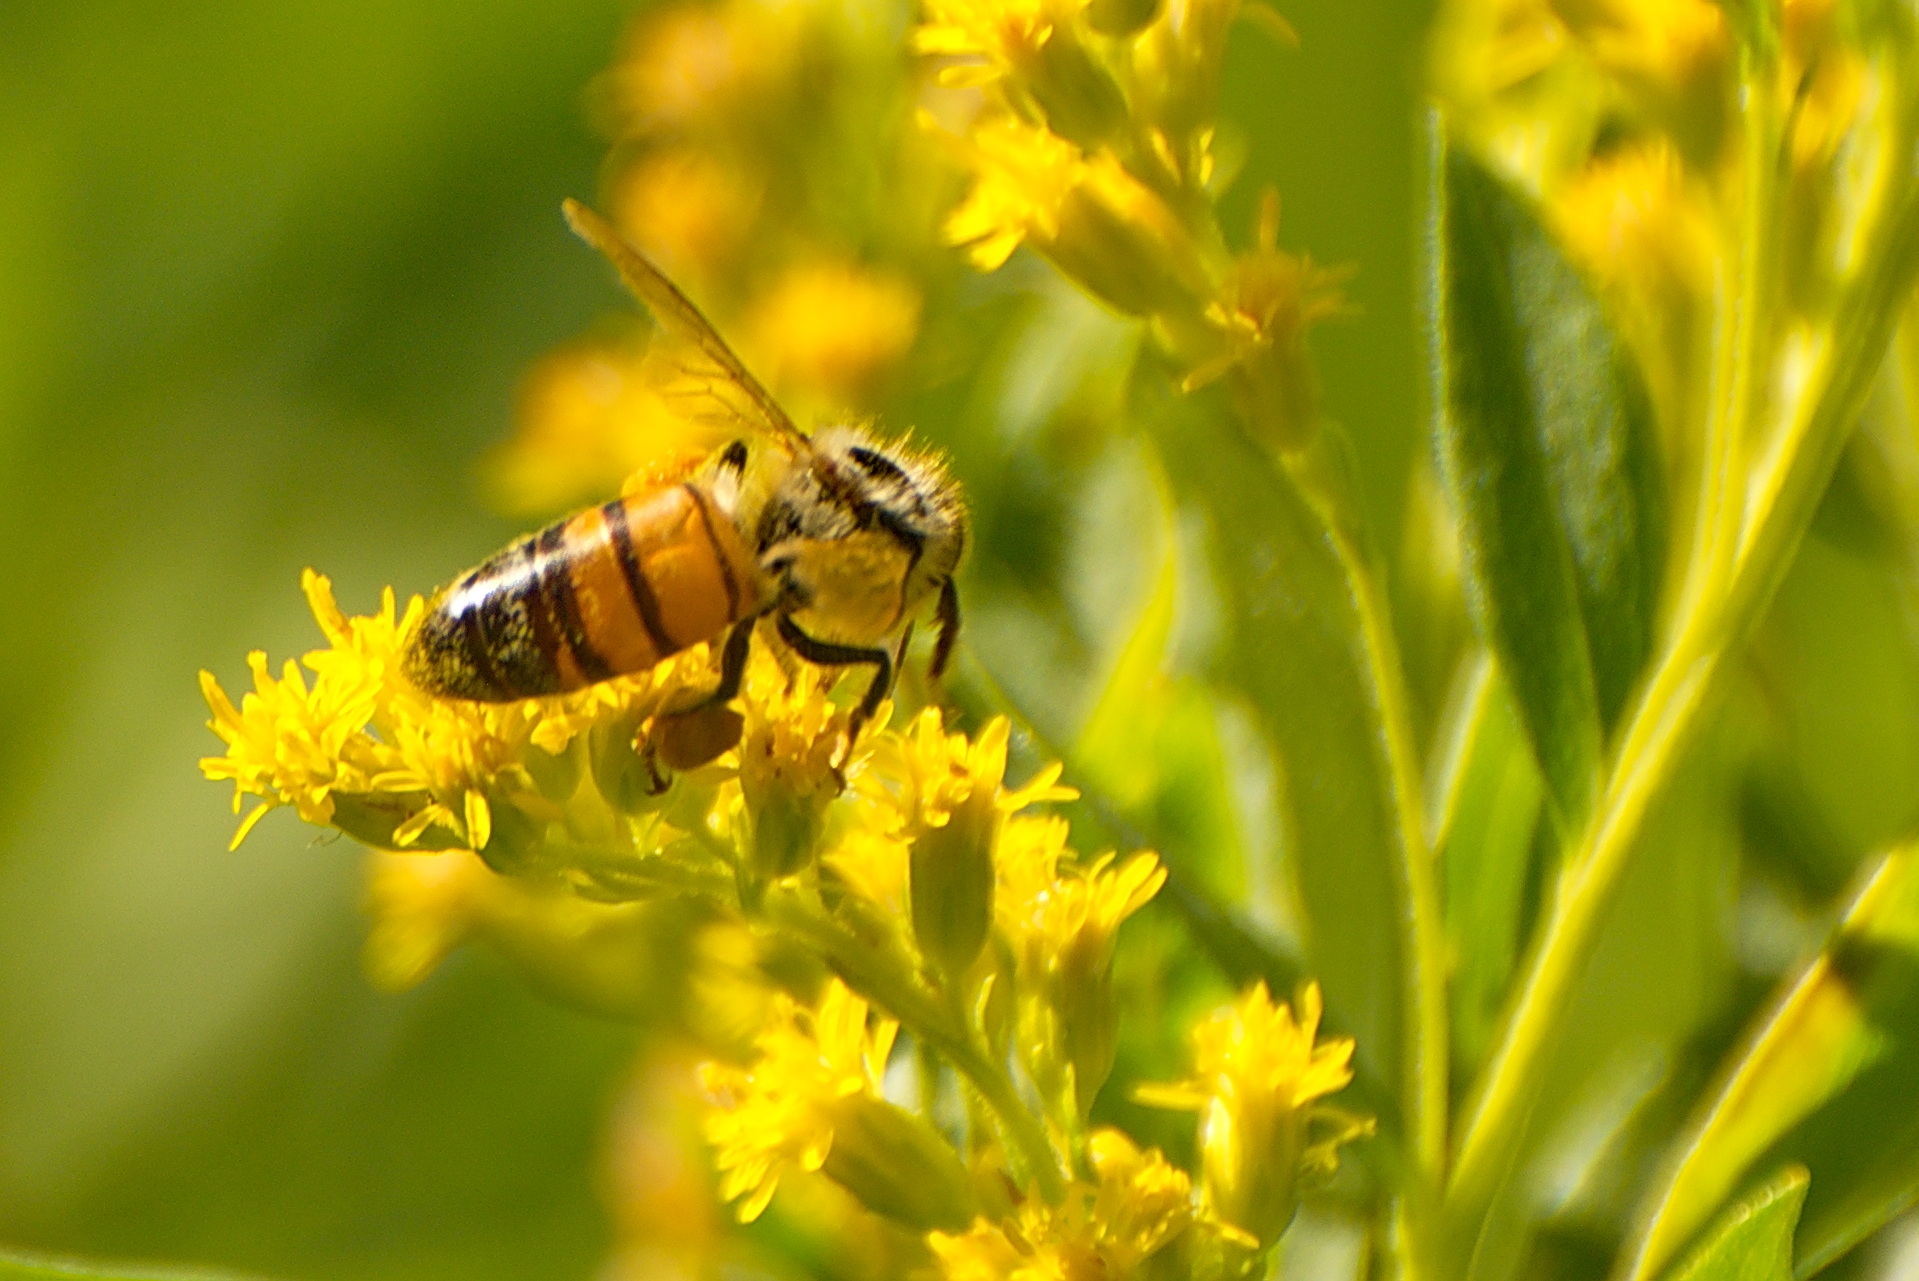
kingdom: Animalia
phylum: Arthropoda
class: Insecta
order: Hymenoptera
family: Apidae
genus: Apis
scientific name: Apis mellifera
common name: Honey bee
